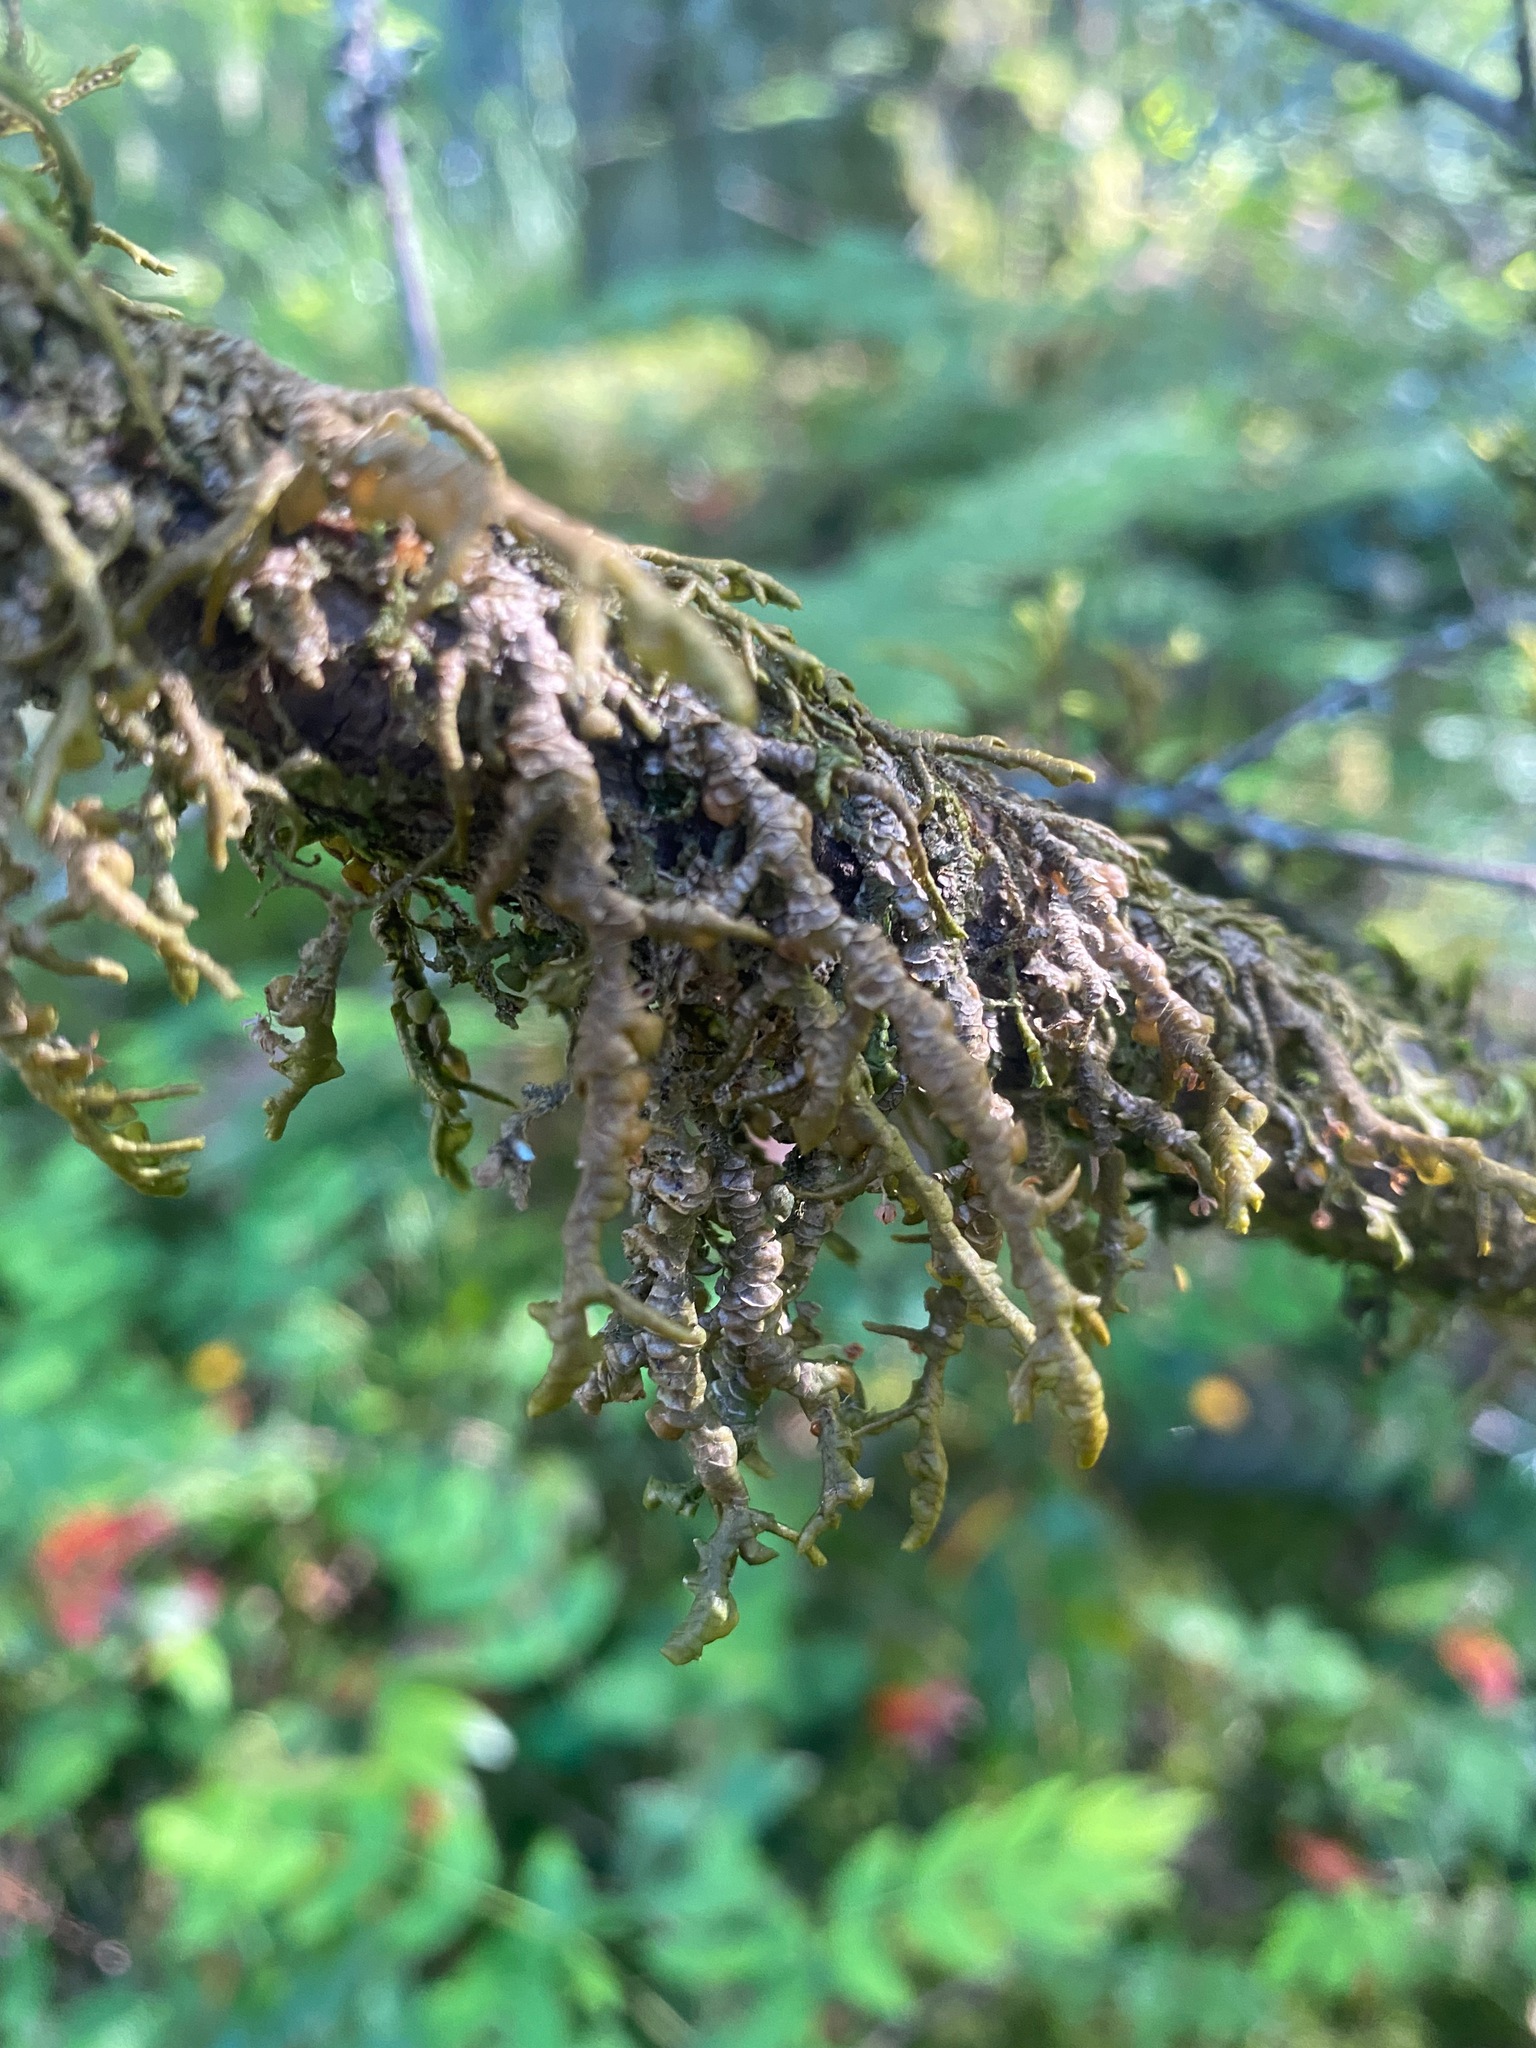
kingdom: Plantae
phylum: Marchantiophyta
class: Jungermanniopsida
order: Porellales
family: Porellaceae
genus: Porella
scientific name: Porella navicularis
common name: Tree ruffle liverwort
